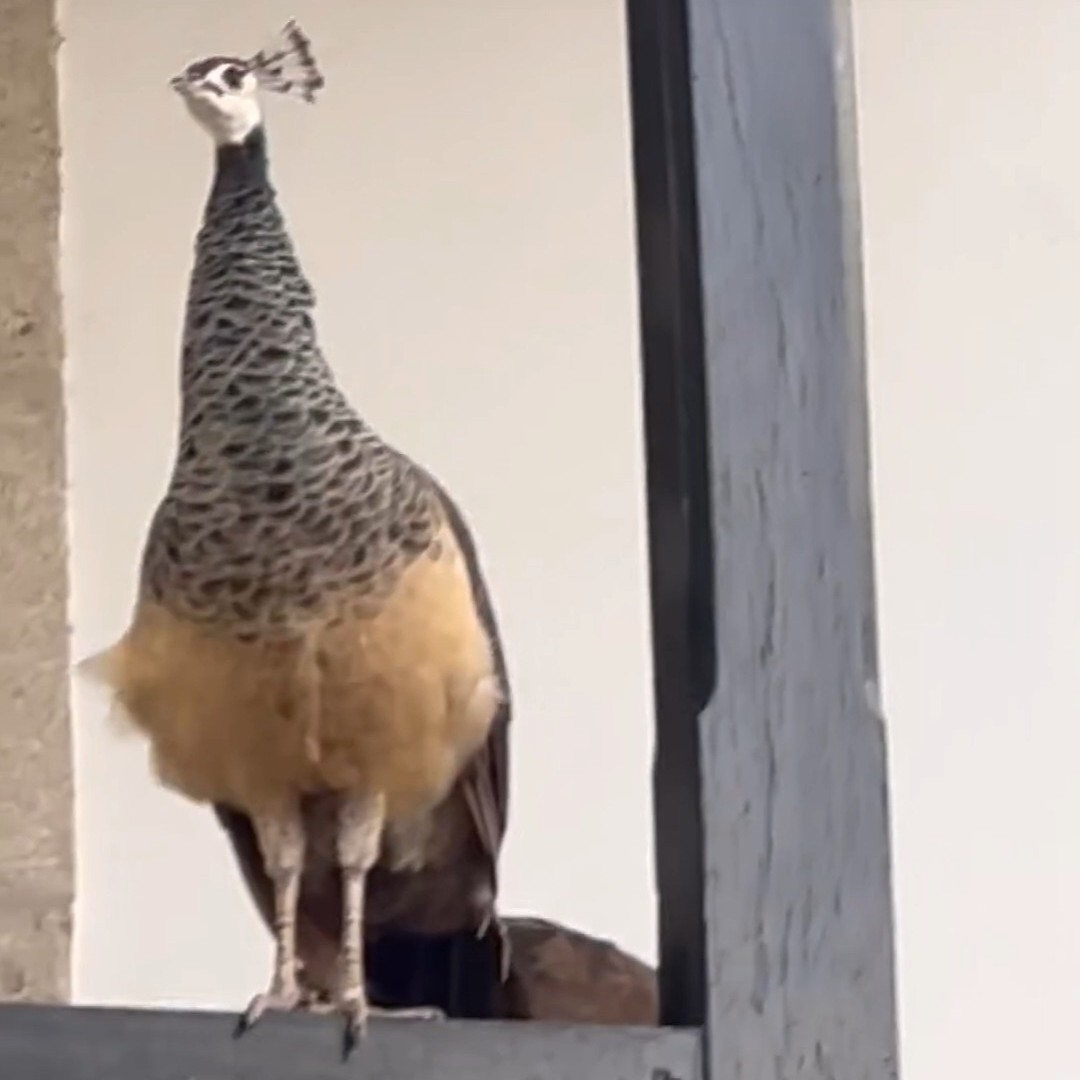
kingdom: Animalia
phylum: Chordata
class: Aves
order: Galliformes
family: Phasianidae
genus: Pavo
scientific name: Pavo cristatus
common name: Indian peafowl
